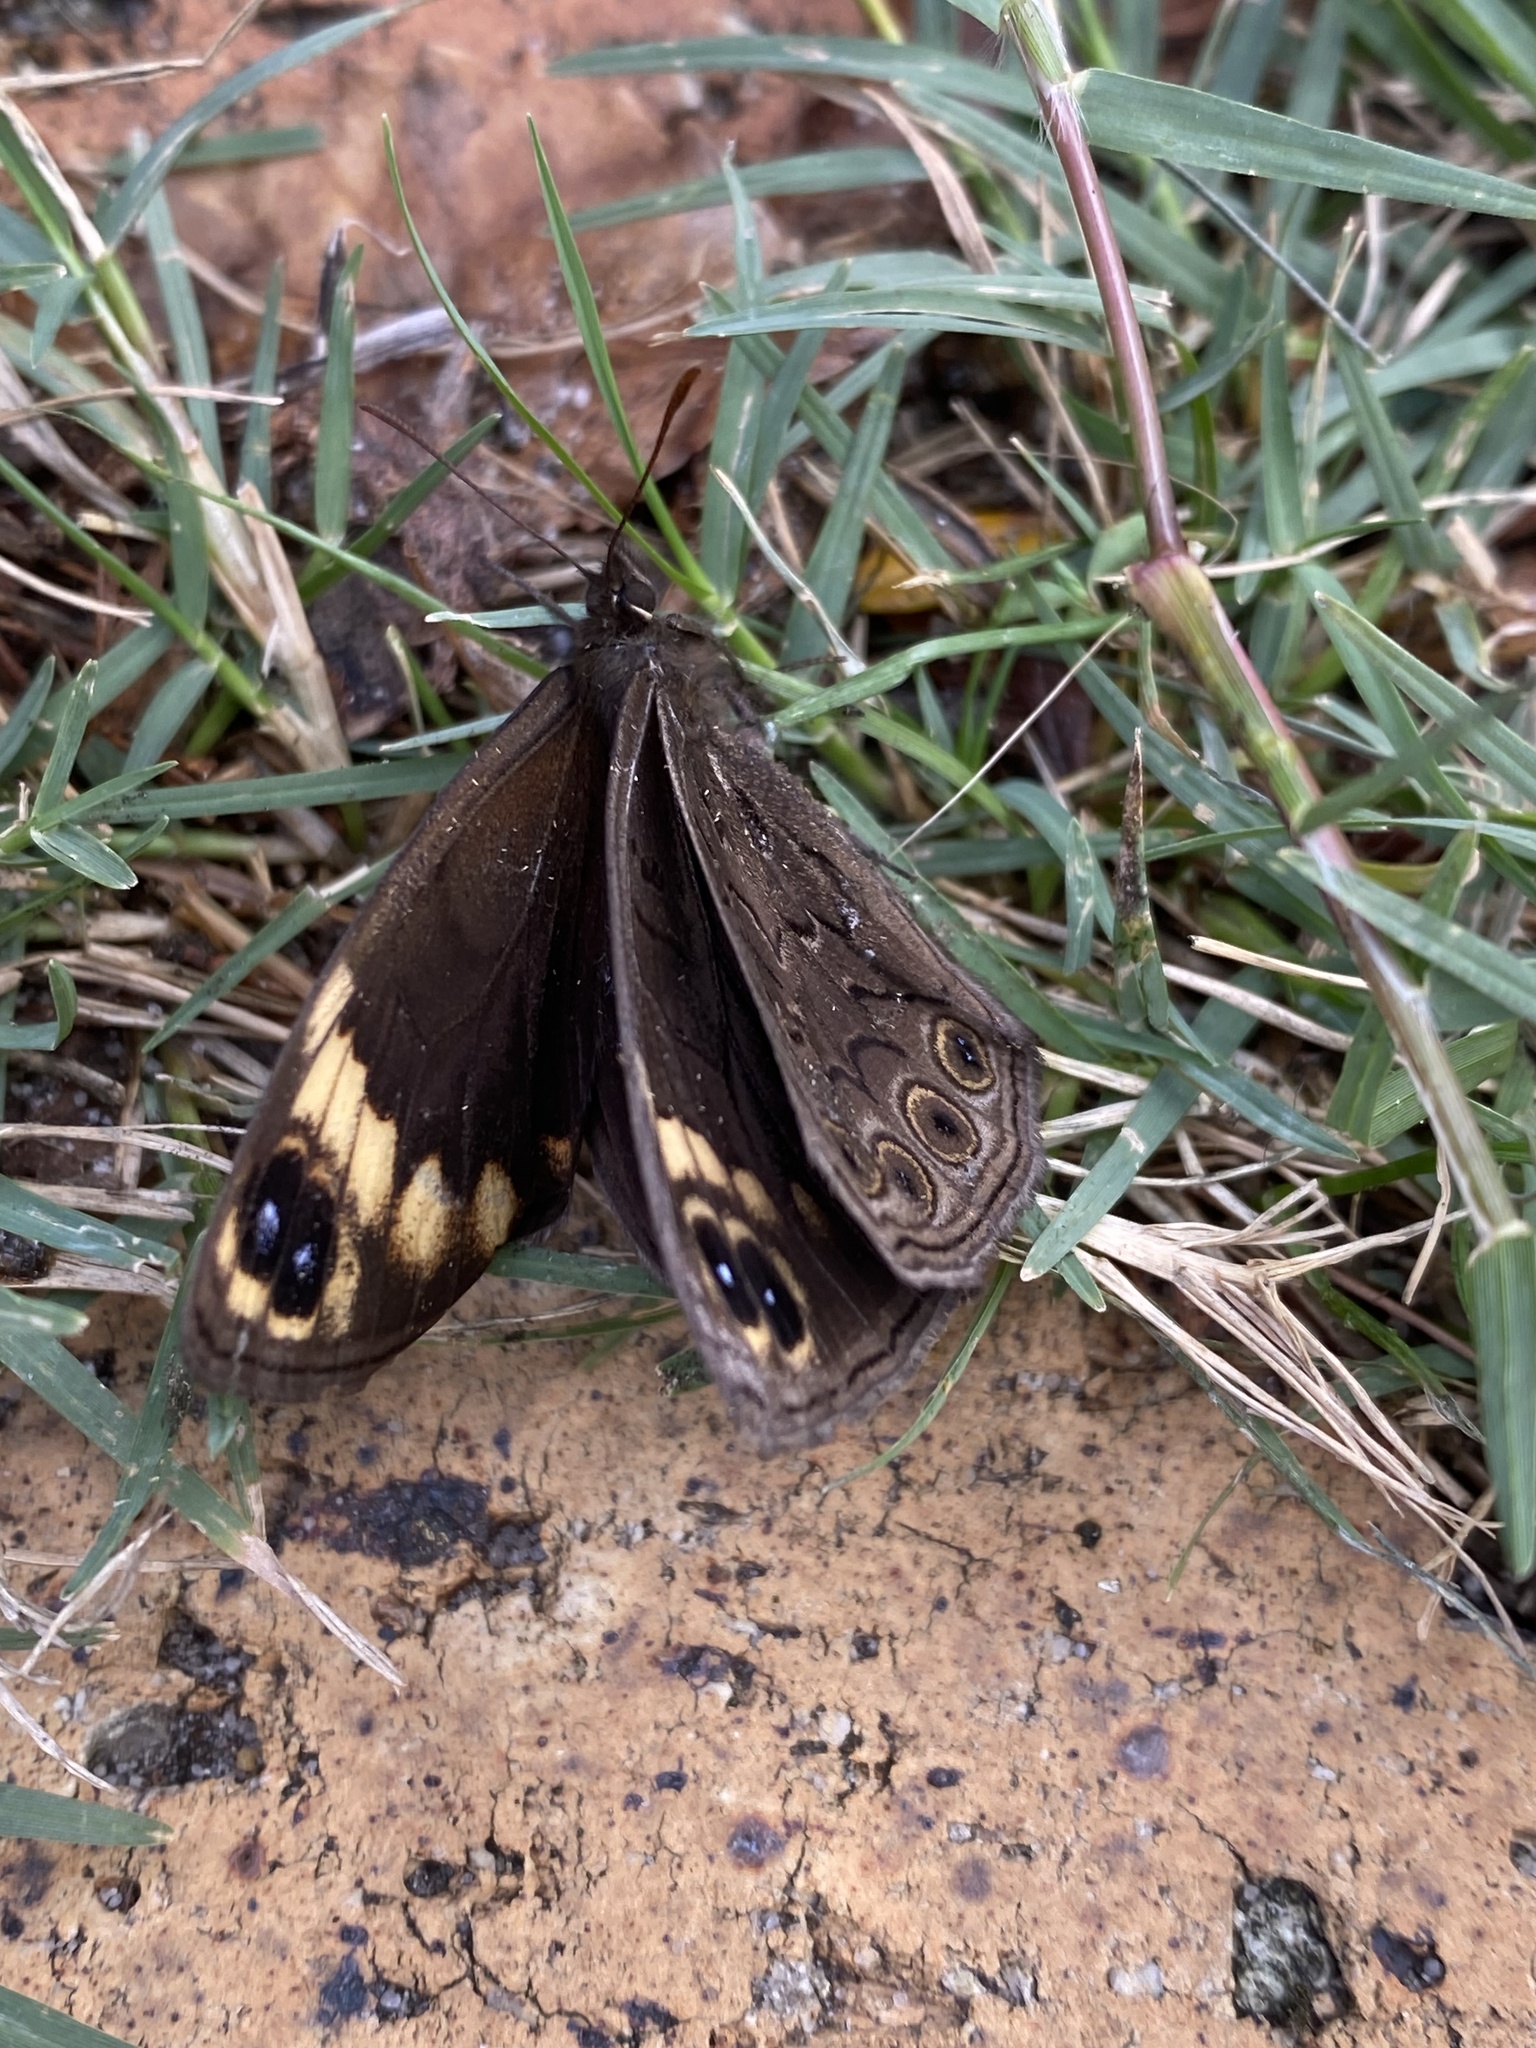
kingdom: Animalia
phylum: Arthropoda
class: Insecta
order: Lepidoptera
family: Nymphalidae
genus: Dira
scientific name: Dira clytus
